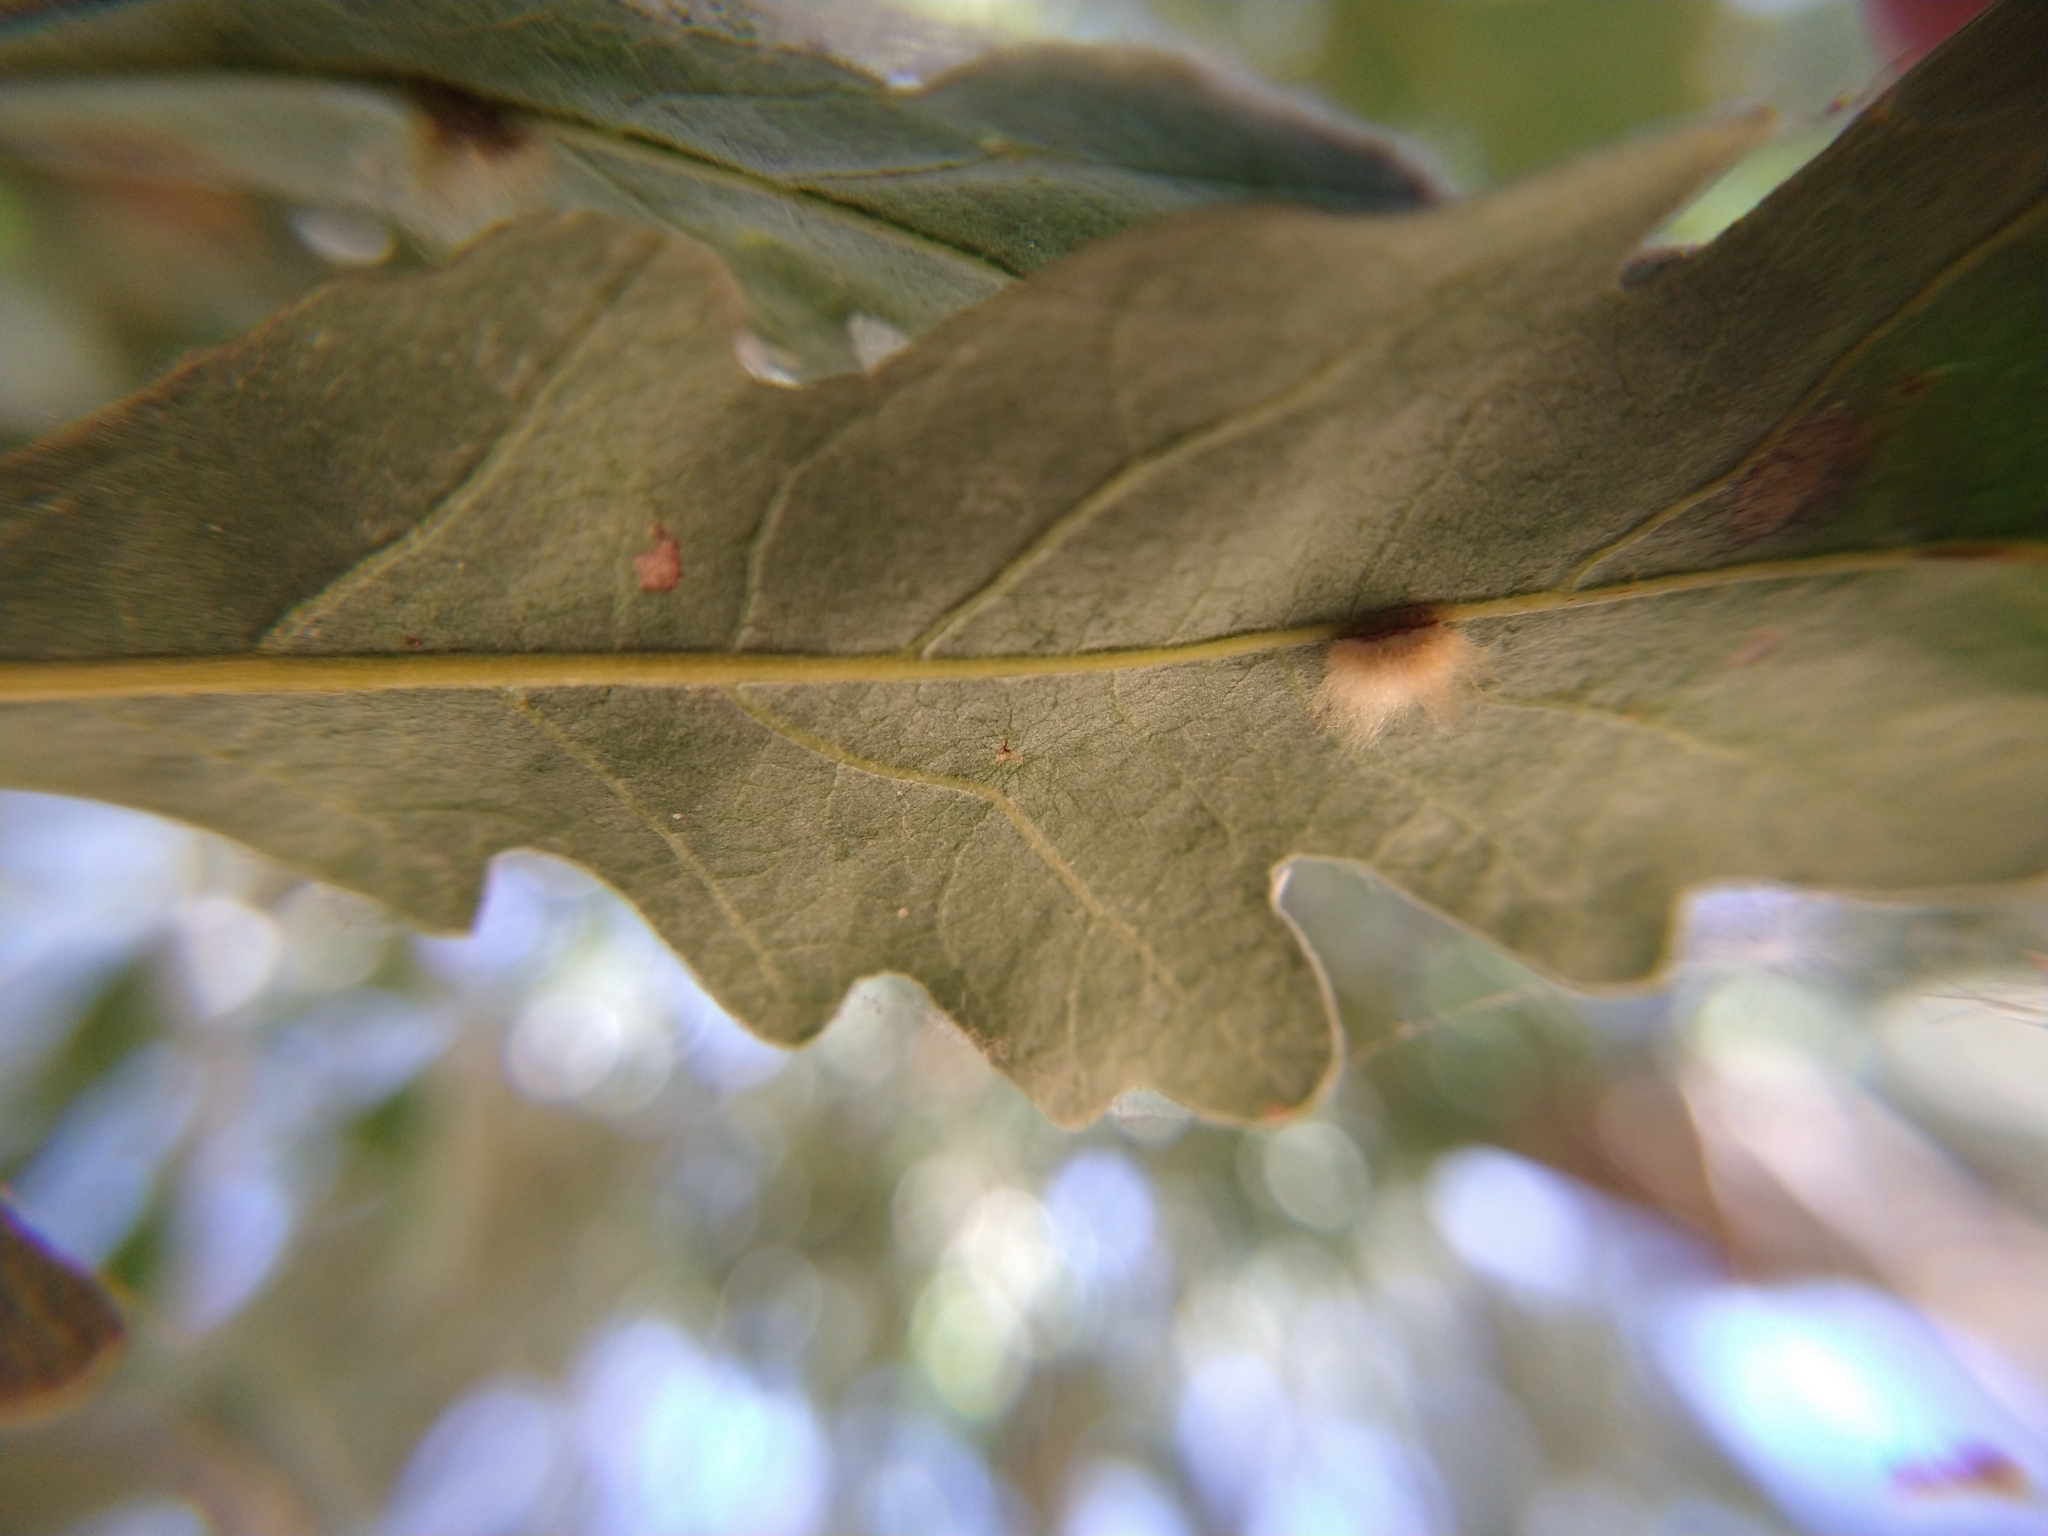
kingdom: Animalia
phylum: Arthropoda
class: Insecta
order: Hymenoptera
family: Cynipidae
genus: Andricus
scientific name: Andricus Druon fullawayi
